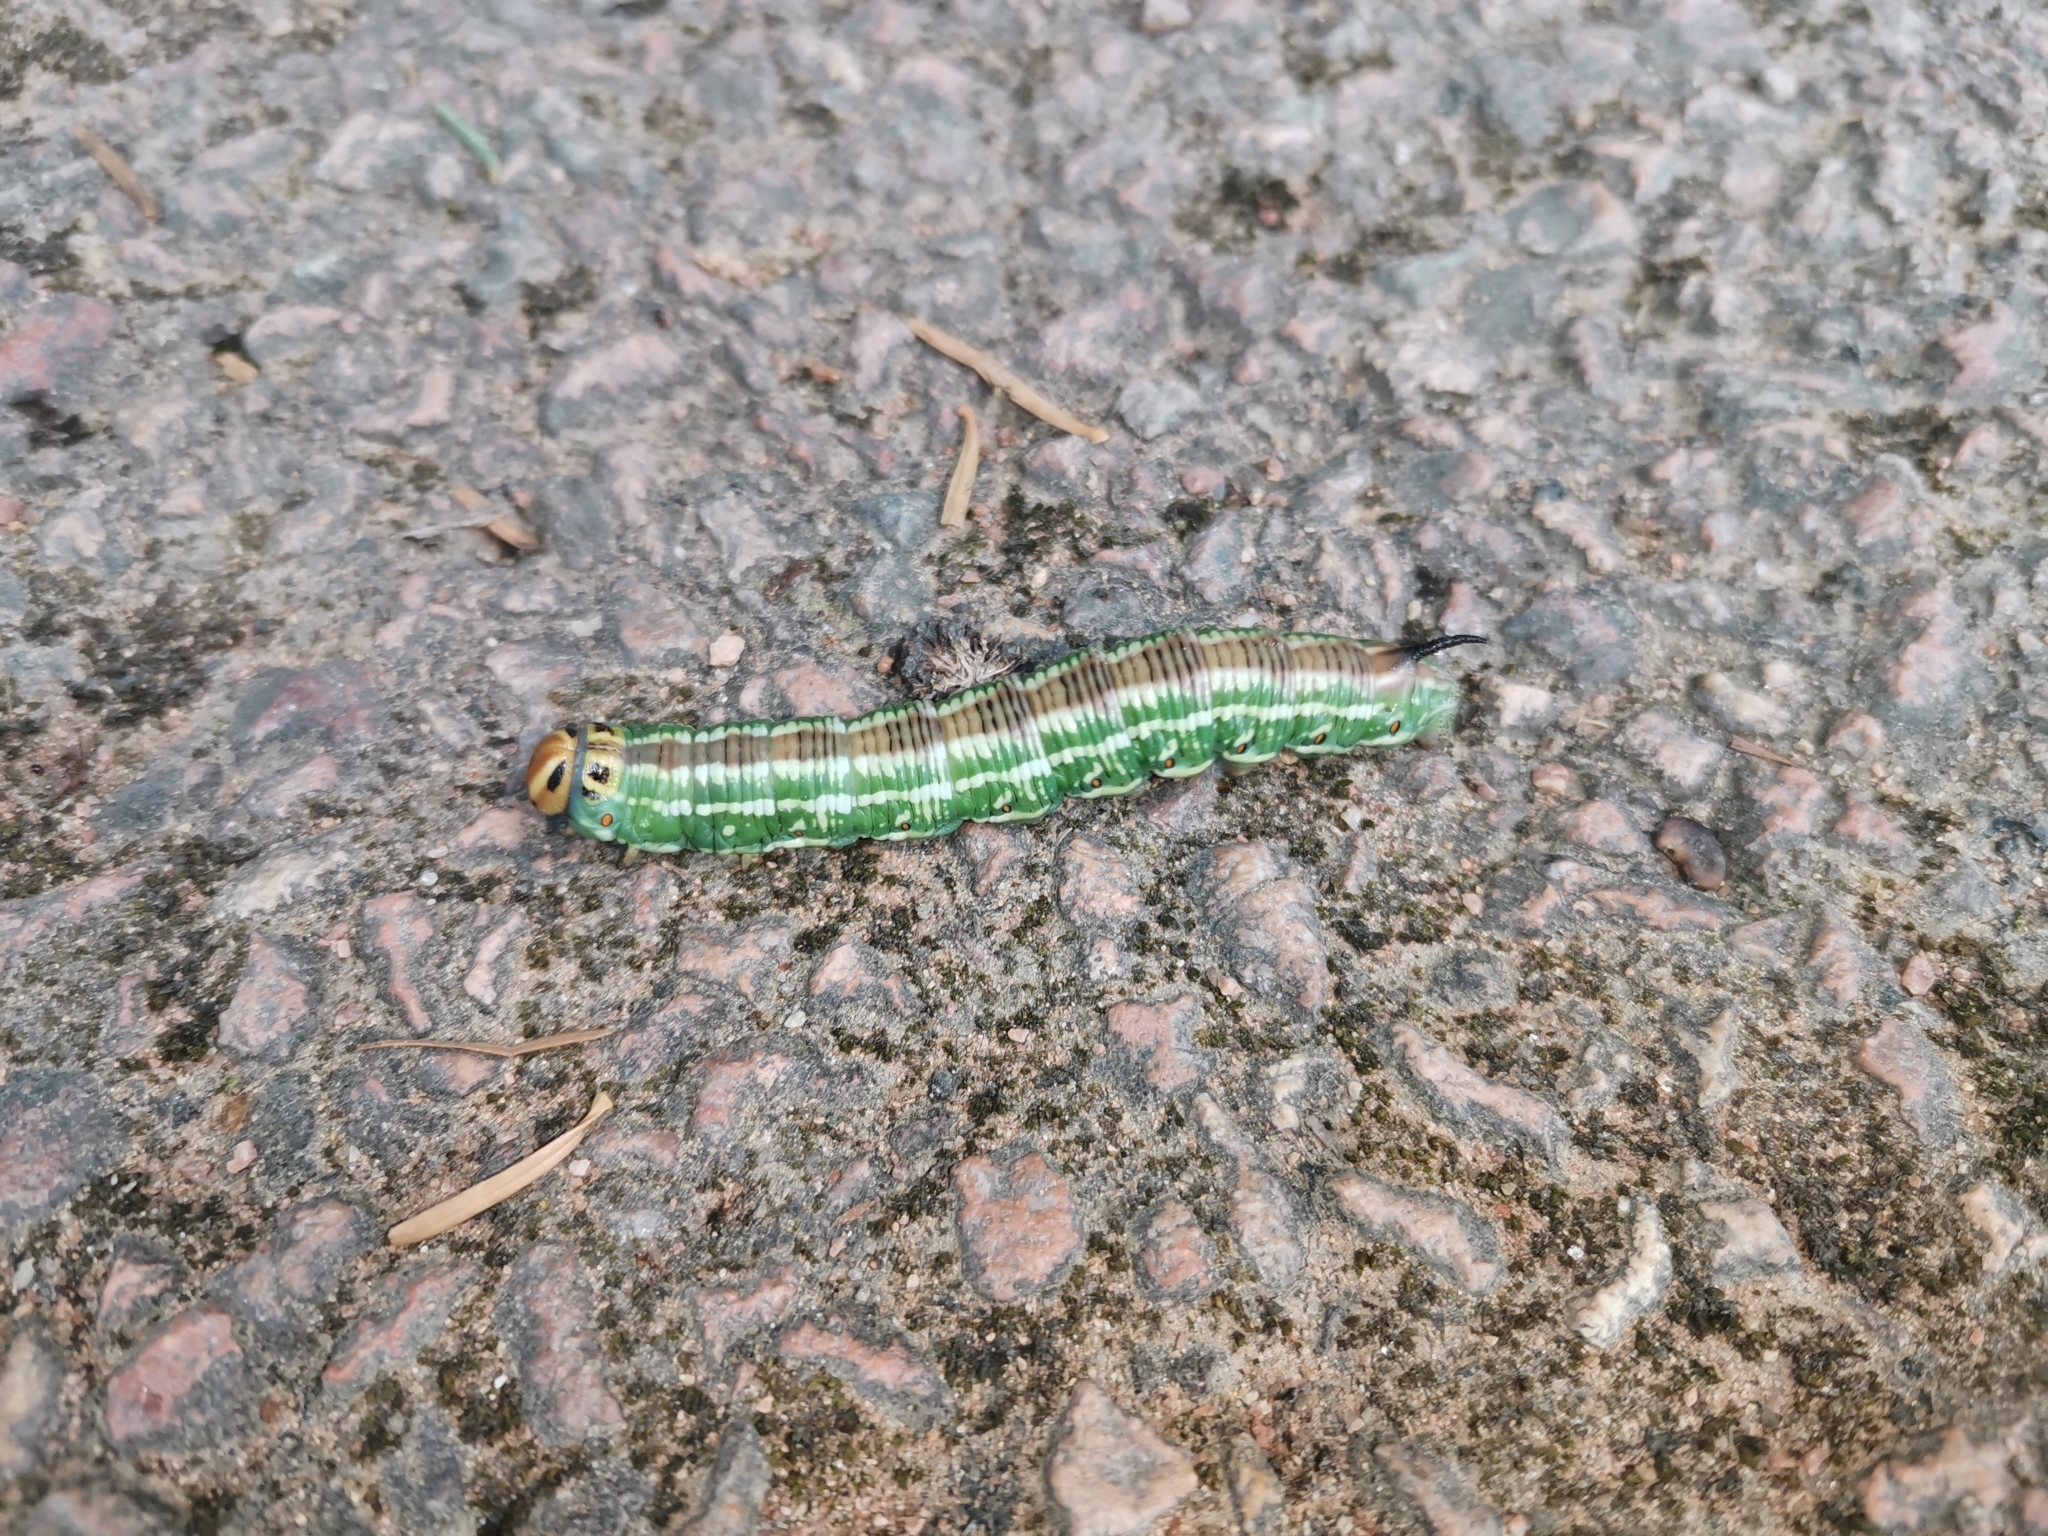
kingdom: Animalia
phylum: Arthropoda
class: Insecta
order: Lepidoptera
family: Sphingidae
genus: Sphinx
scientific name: Sphinx pinastri
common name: Pine hawk-moth
